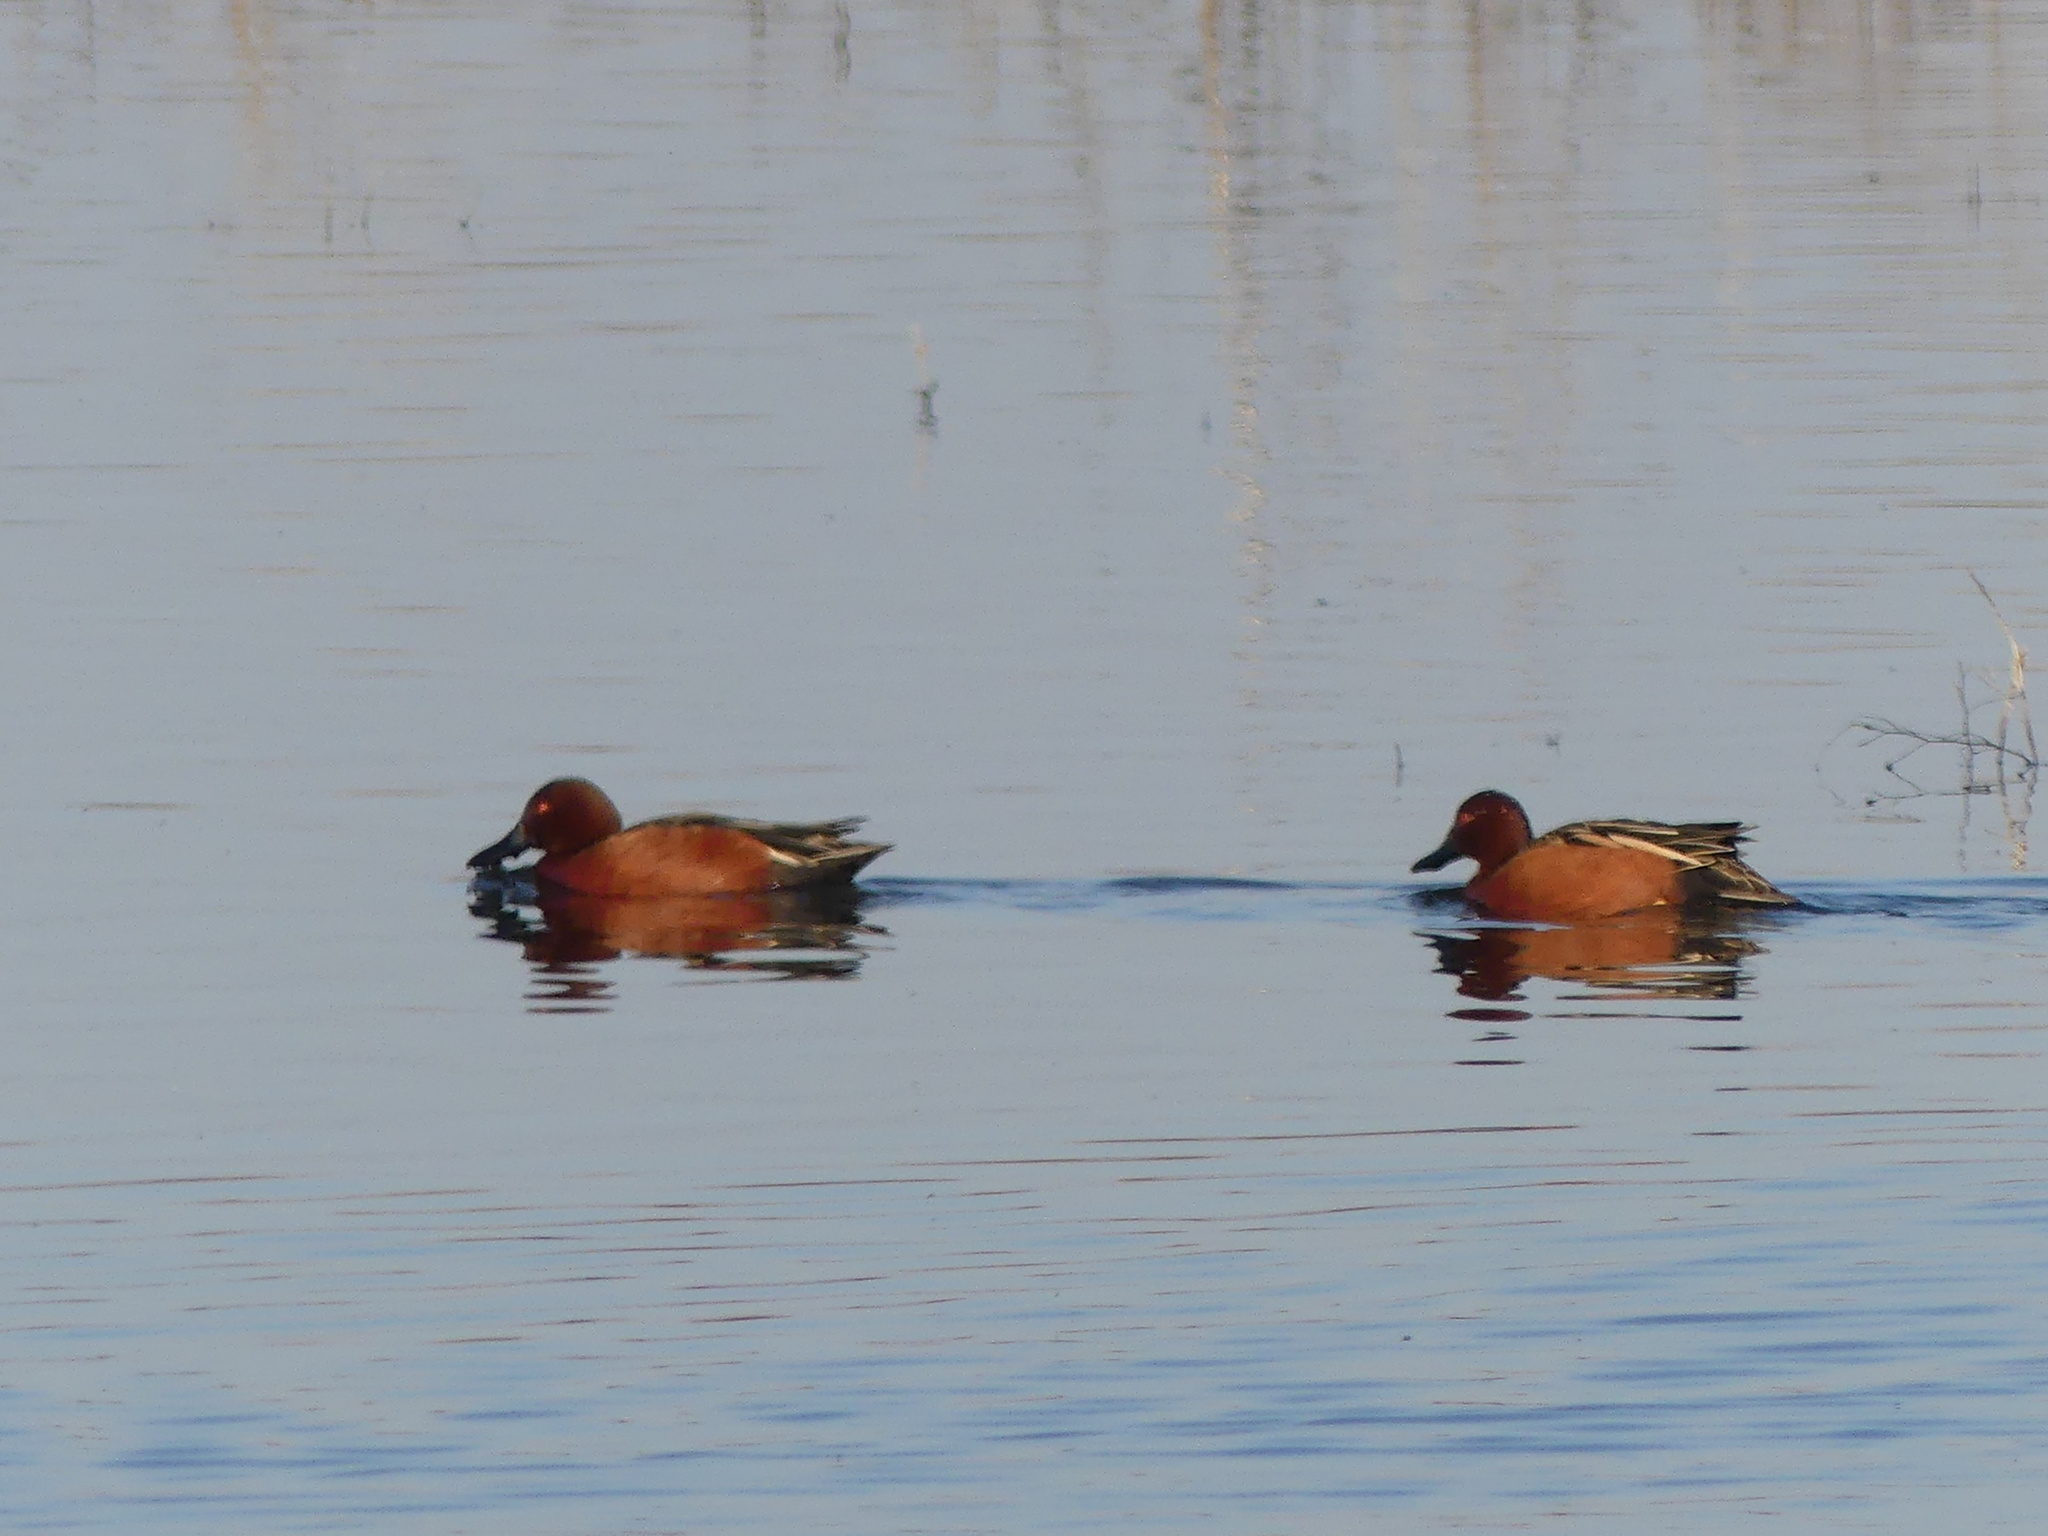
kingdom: Animalia
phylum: Chordata
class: Aves
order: Anseriformes
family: Anatidae
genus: Spatula
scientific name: Spatula cyanoptera
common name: Cinnamon teal
